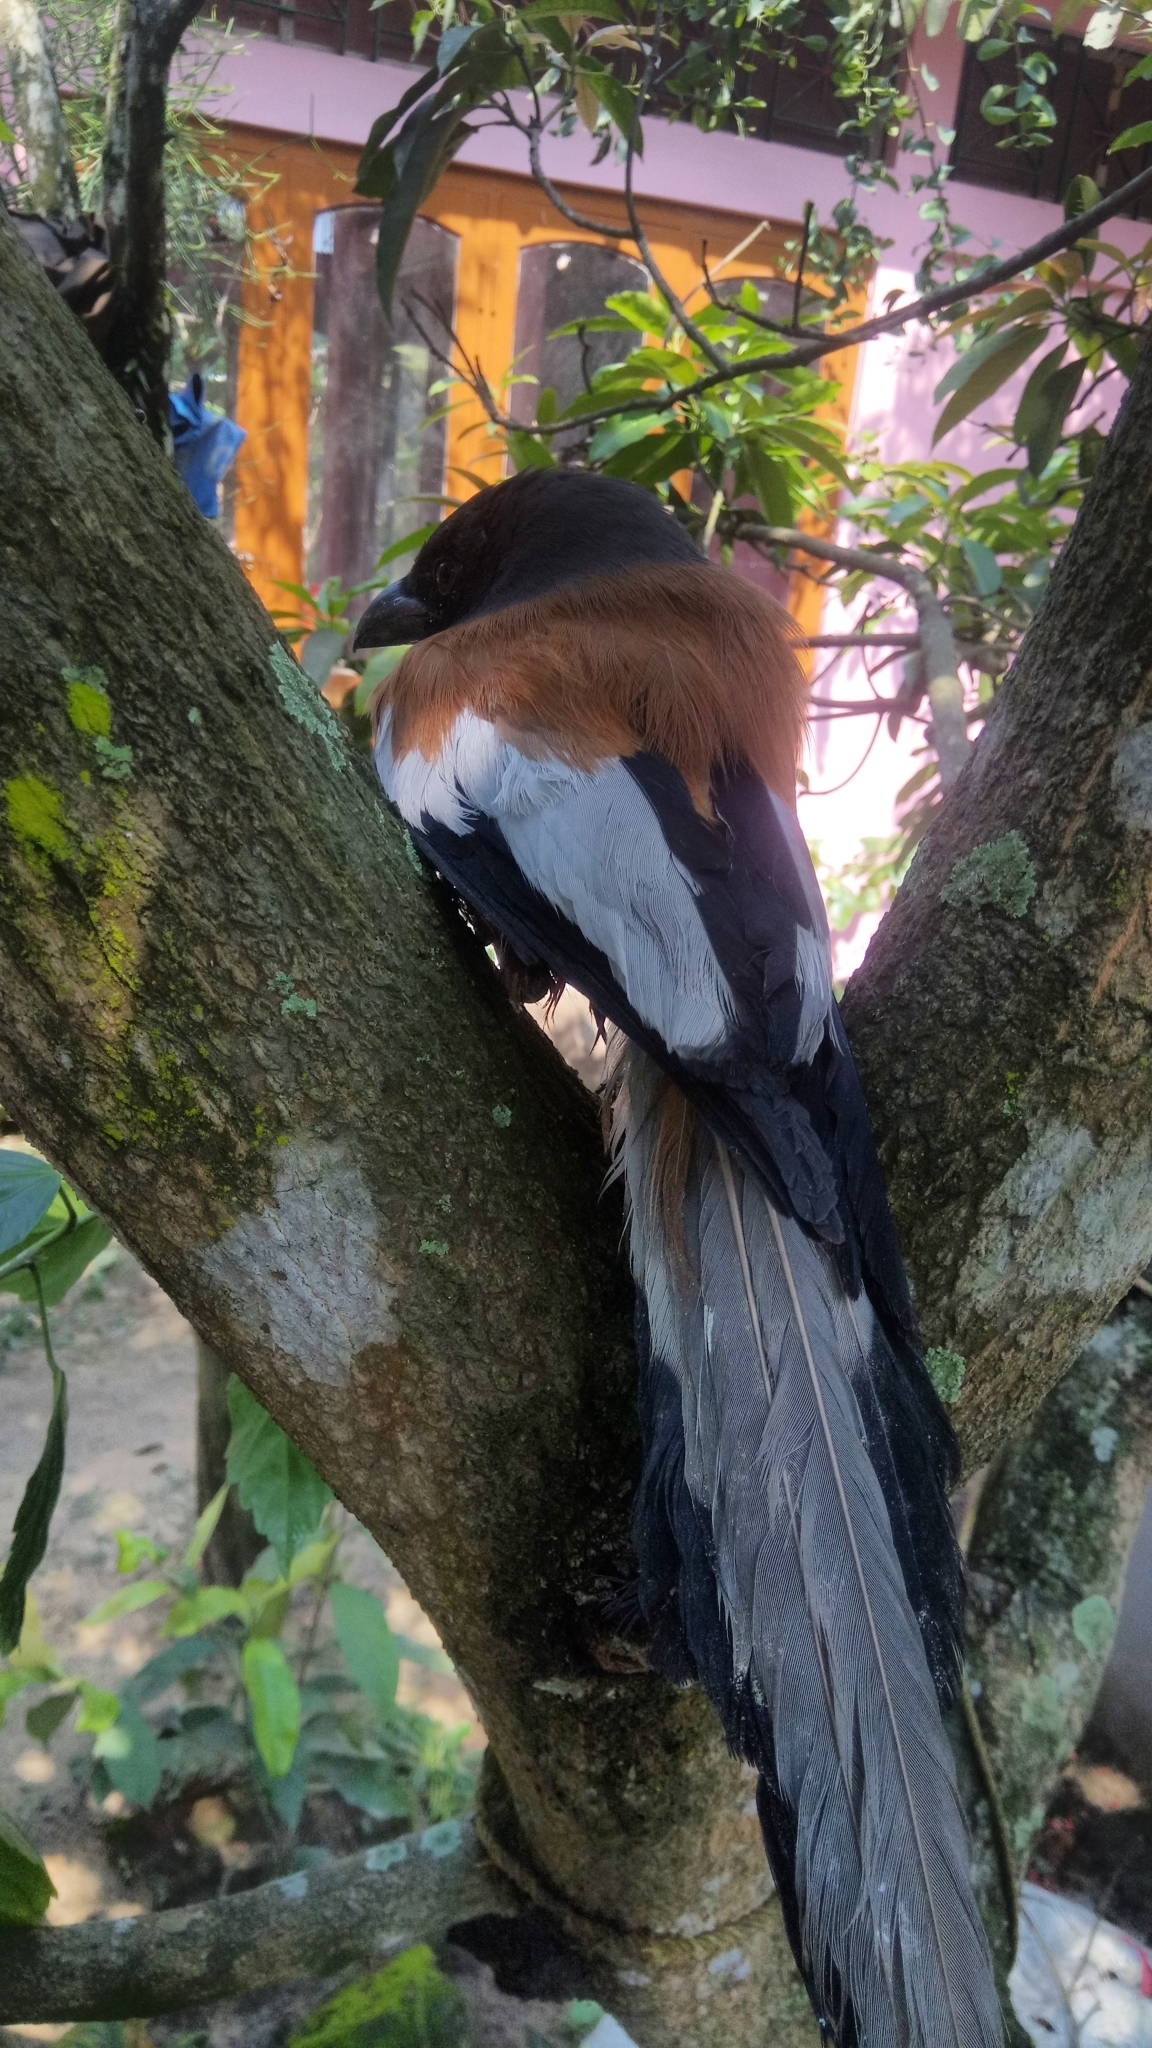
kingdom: Animalia
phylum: Chordata
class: Aves
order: Passeriformes
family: Corvidae
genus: Dendrocitta
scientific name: Dendrocitta vagabunda
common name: Rufous treepie
